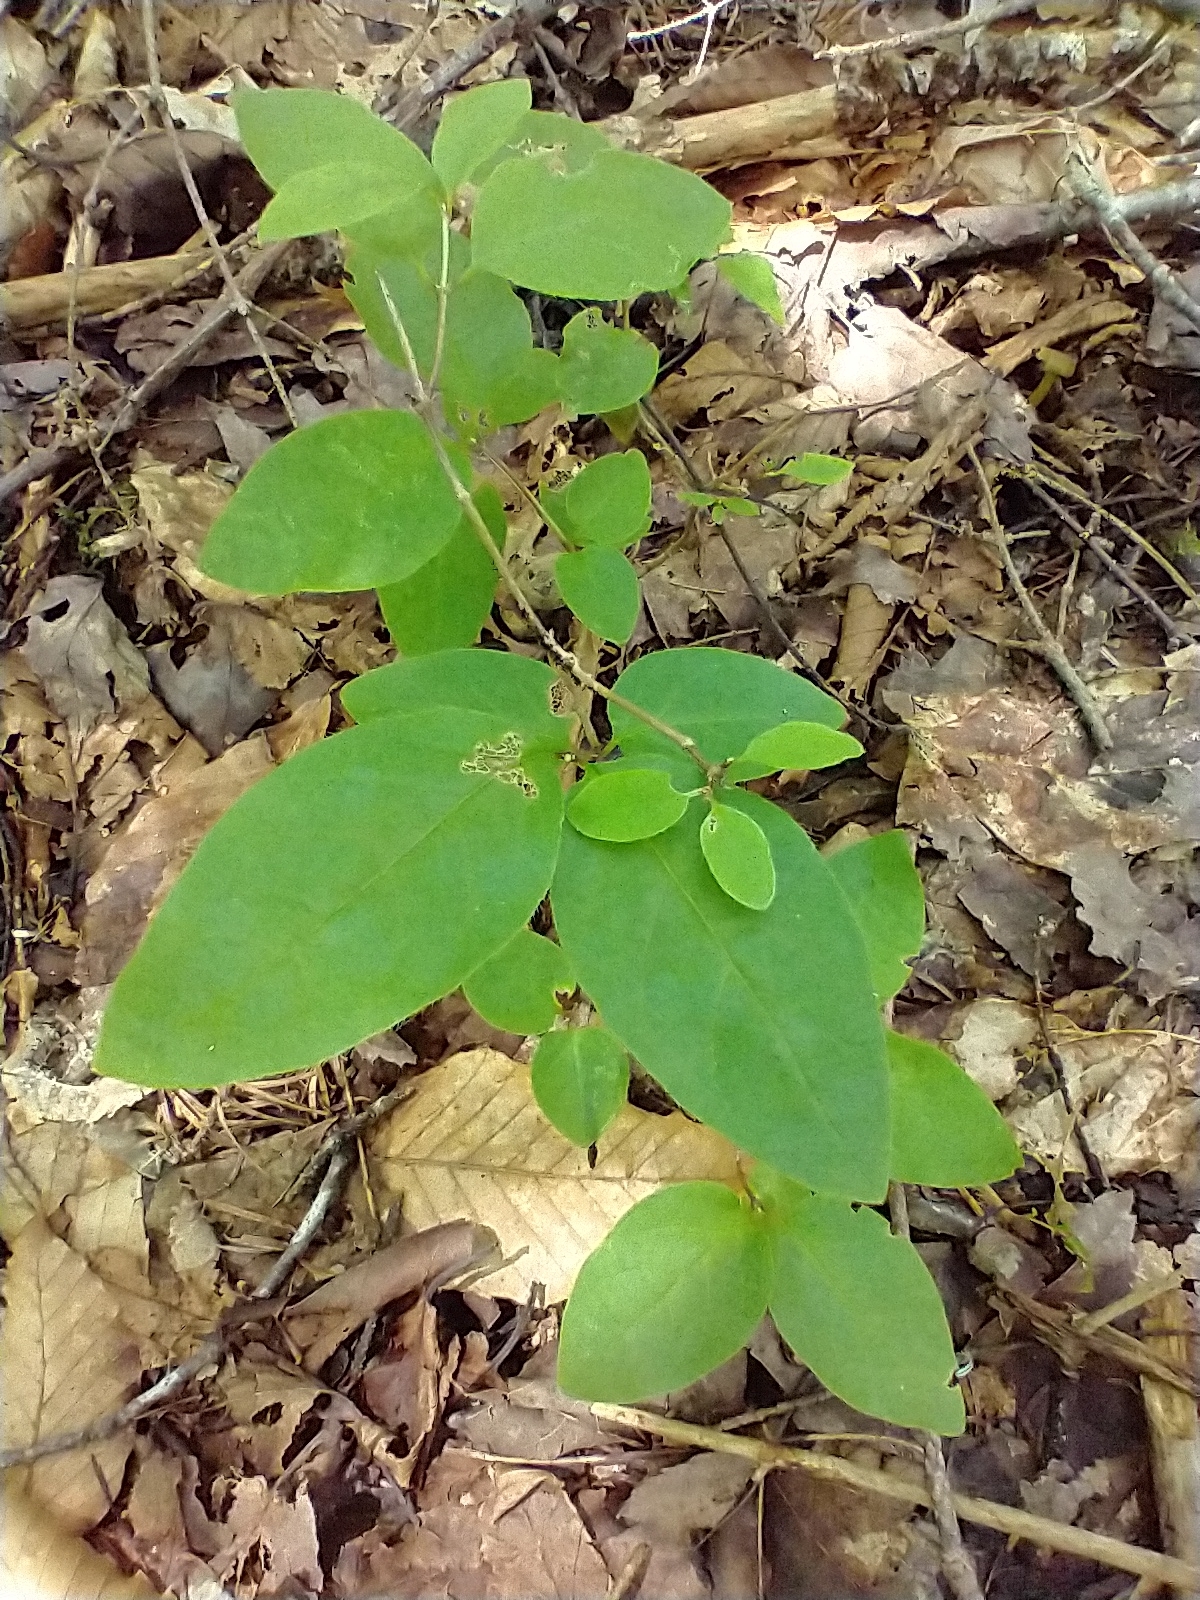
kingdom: Plantae
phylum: Tracheophyta
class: Magnoliopsida
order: Dipsacales
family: Caprifoliaceae
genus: Lonicera
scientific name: Lonicera canadensis
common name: American fly-honeysuckle
